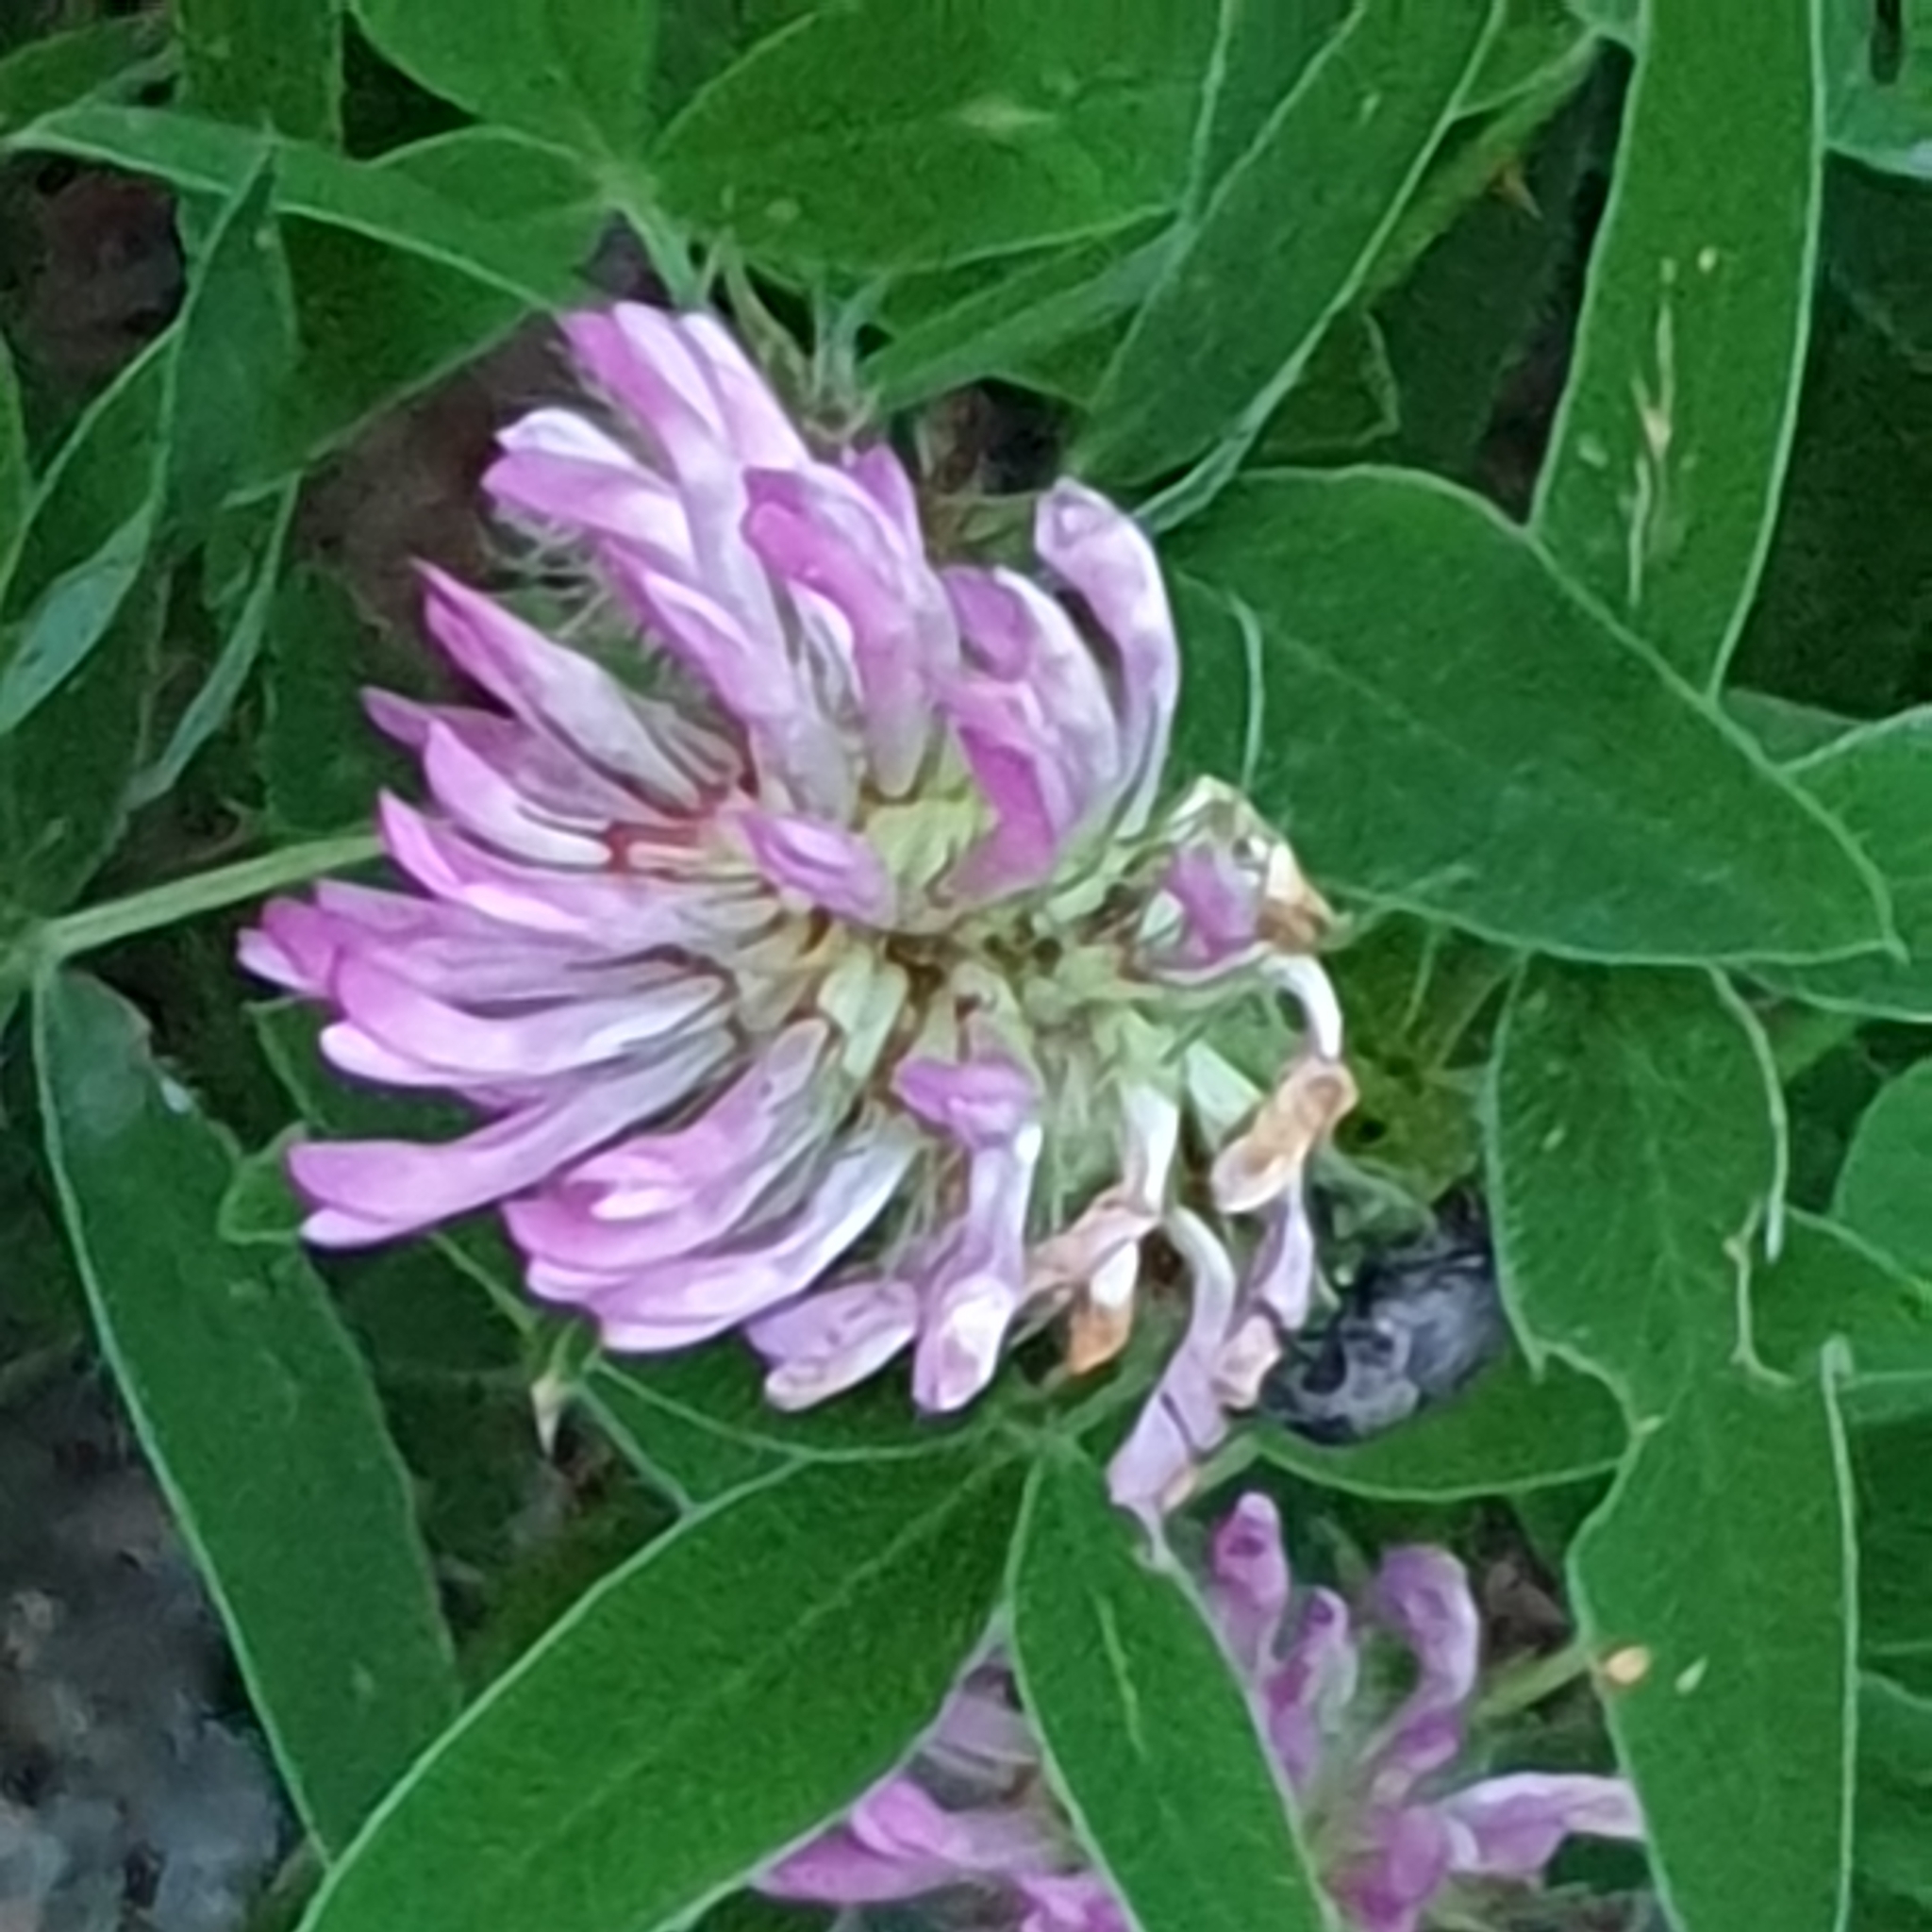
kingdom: Plantae
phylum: Tracheophyta
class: Magnoliopsida
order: Fabales
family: Fabaceae
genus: Trifolium
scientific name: Trifolium medium
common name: Zigzag clover
